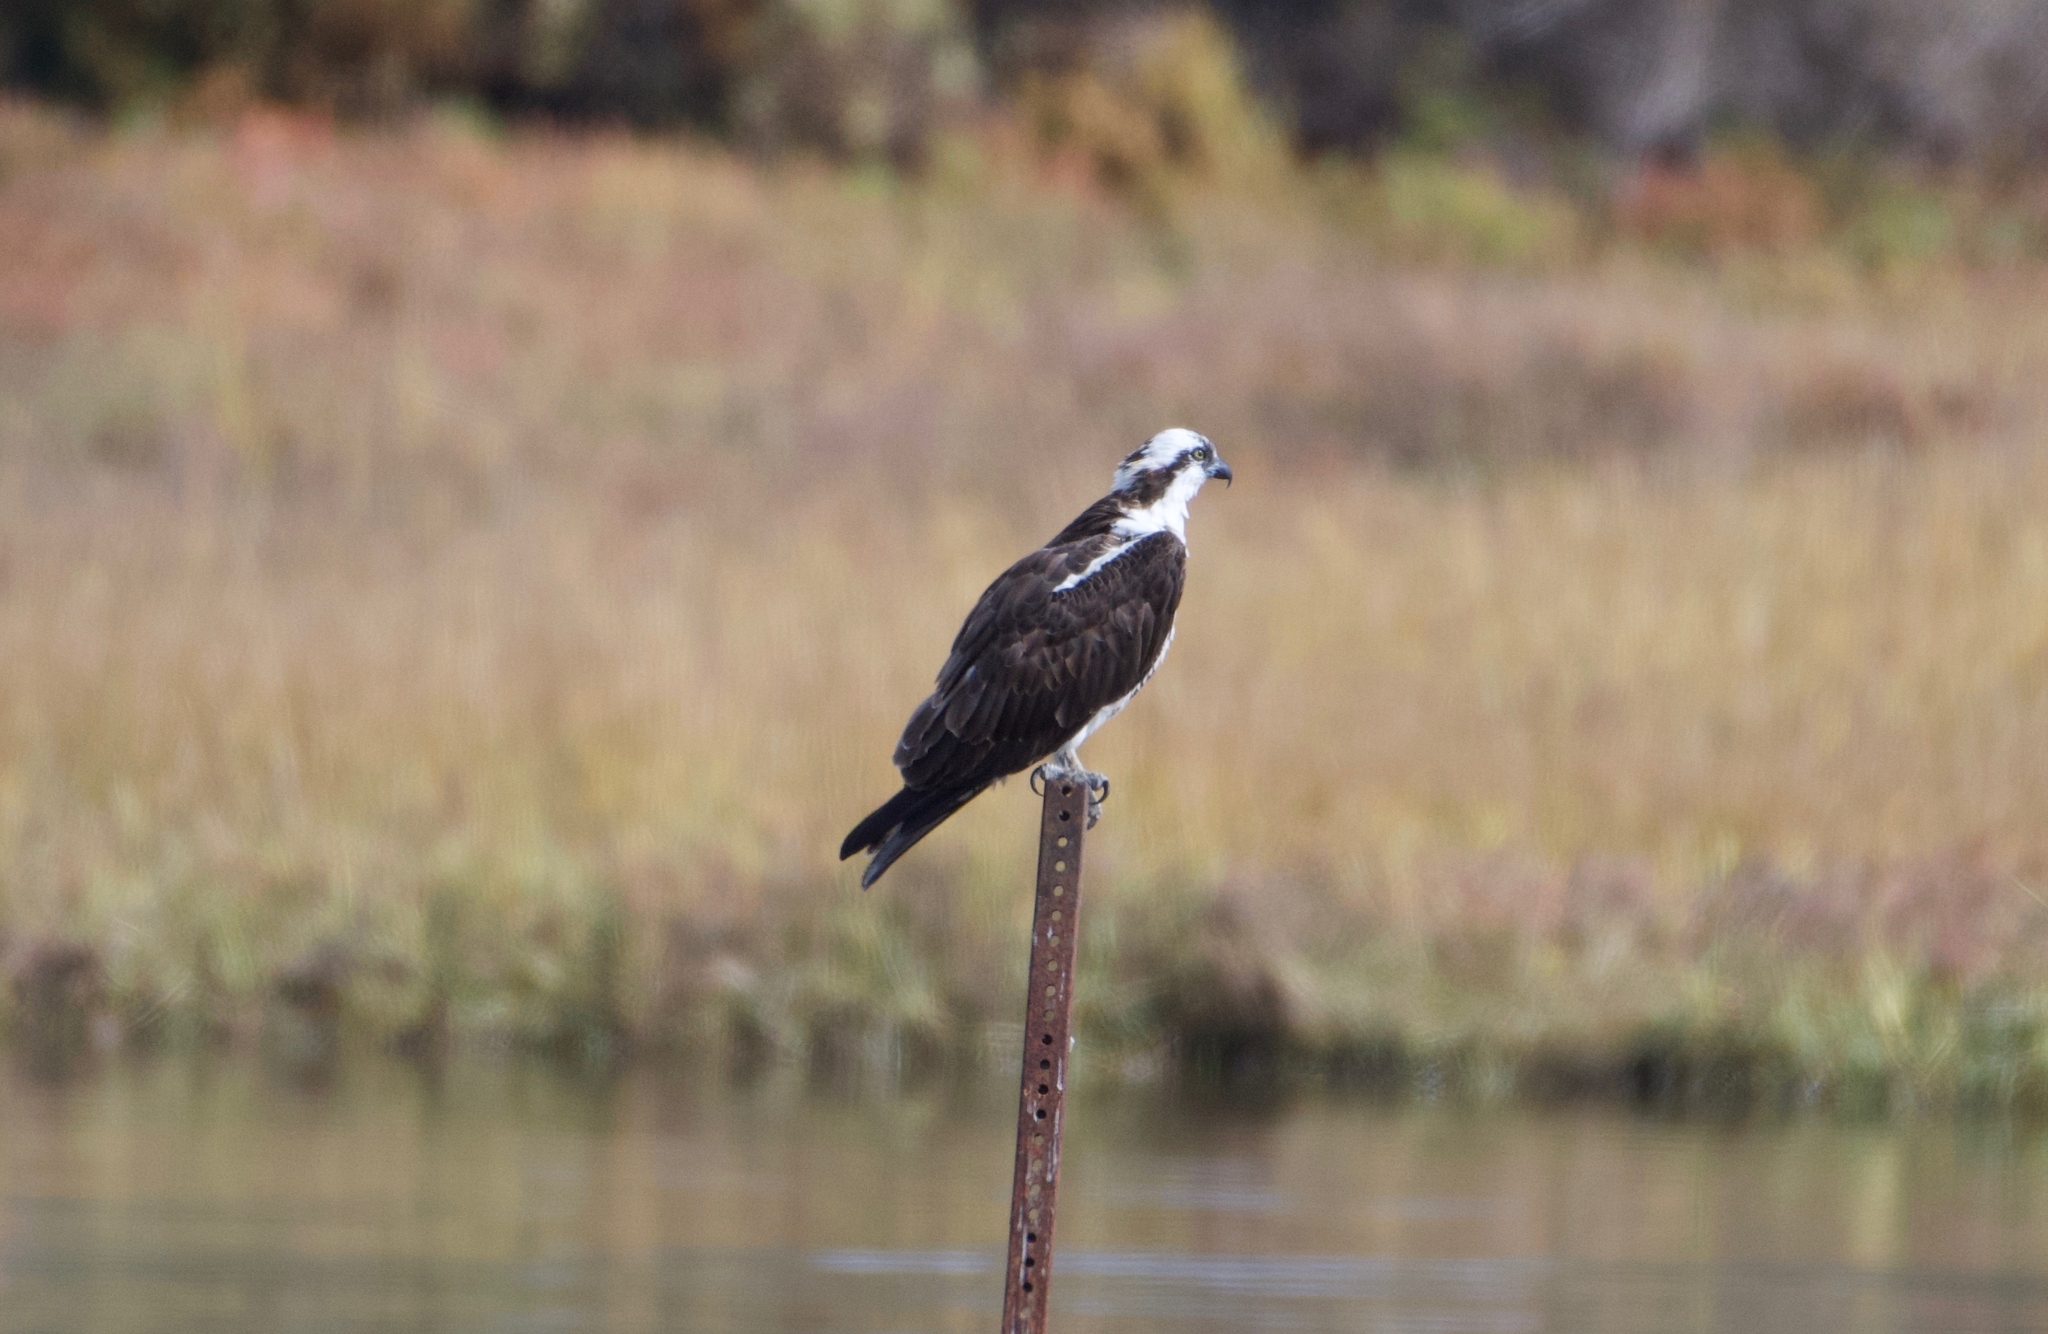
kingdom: Animalia
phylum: Chordata
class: Aves
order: Accipitriformes
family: Pandionidae
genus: Pandion
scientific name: Pandion haliaetus
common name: Osprey
